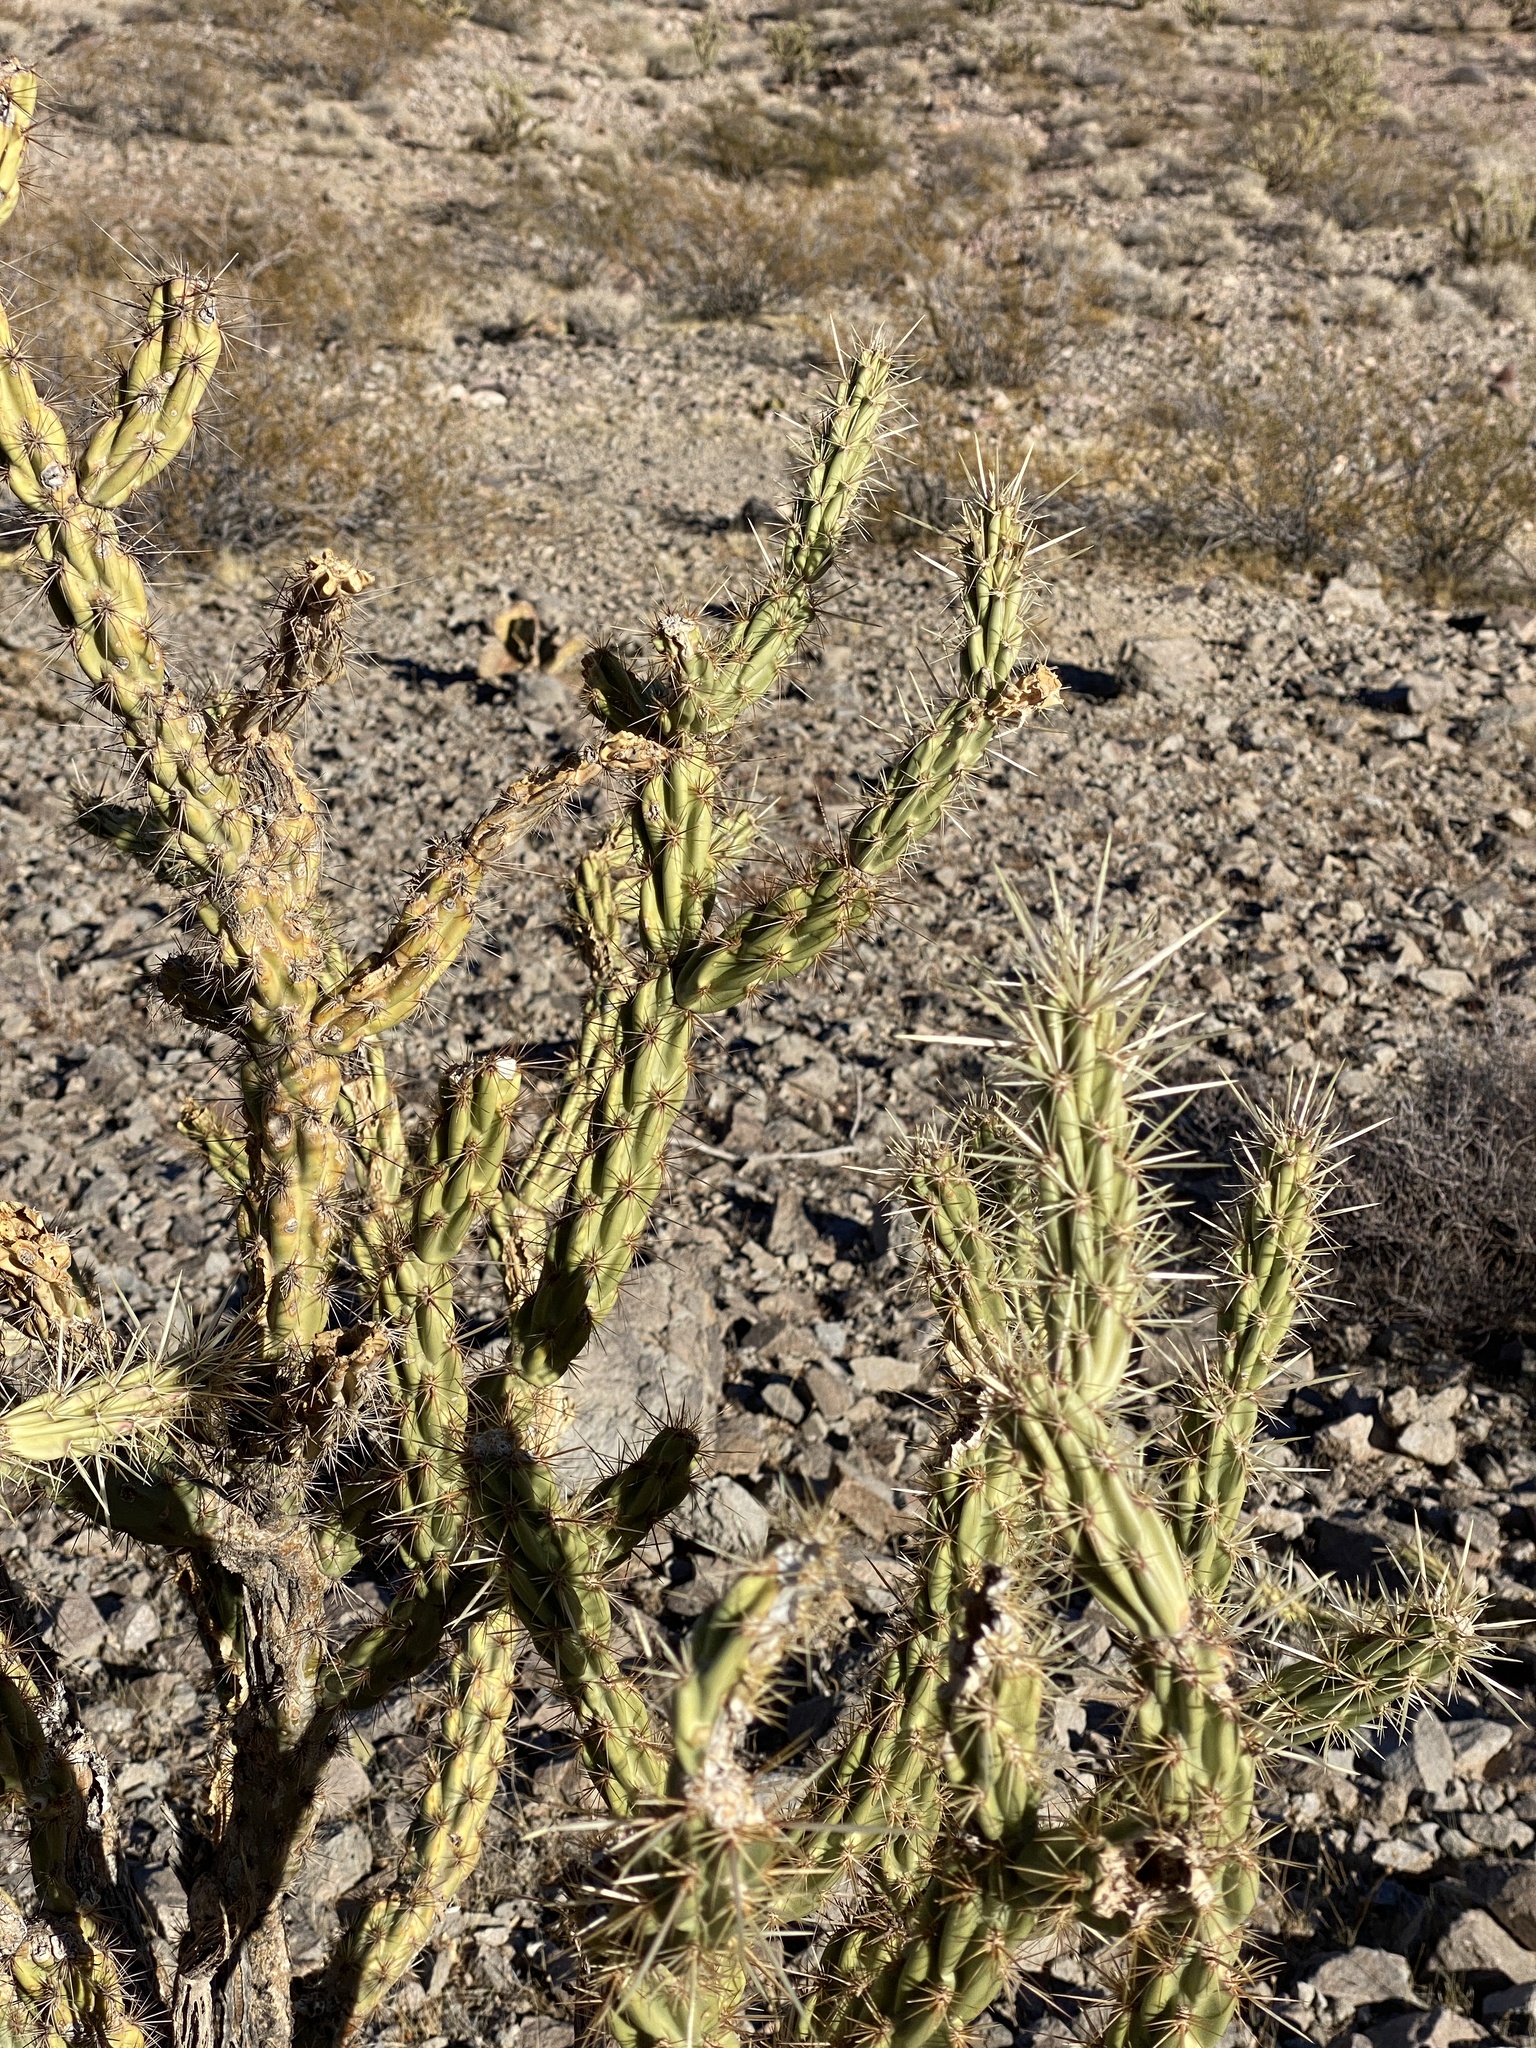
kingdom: Plantae
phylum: Tracheophyta
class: Magnoliopsida
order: Caryophyllales
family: Cactaceae
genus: Cylindropuntia
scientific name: Cylindropuntia acanthocarpa
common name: Buckhorn cholla
